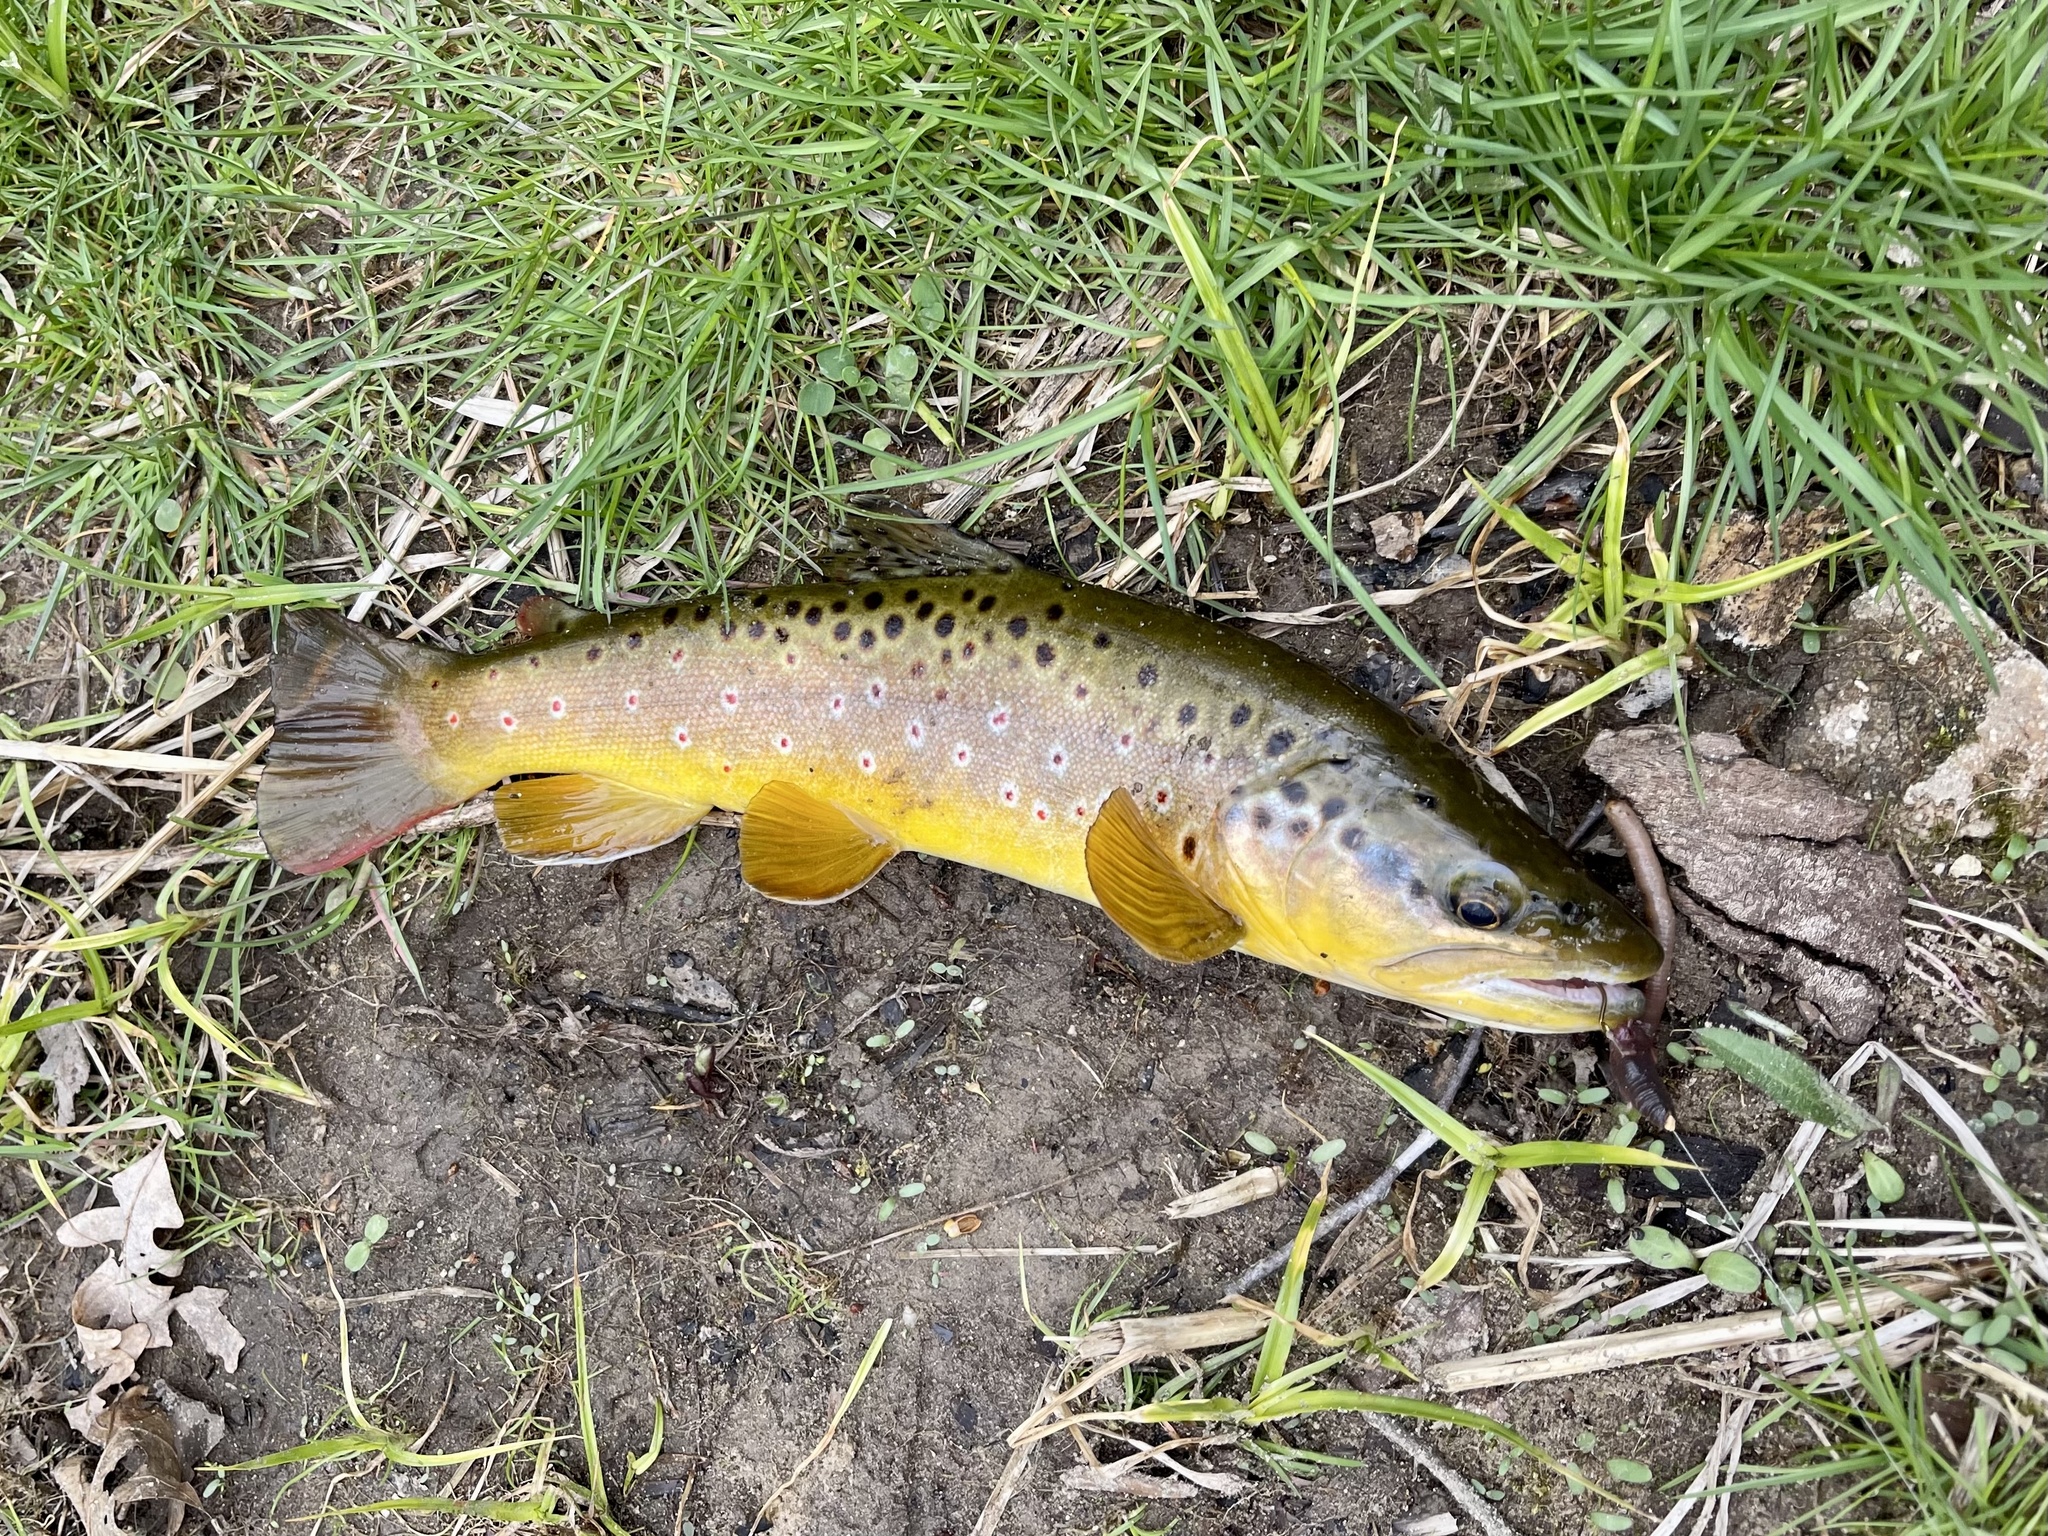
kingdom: Animalia
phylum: Chordata
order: Salmoniformes
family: Salmonidae
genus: Salmo
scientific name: Salmo trutta
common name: Brown trout
